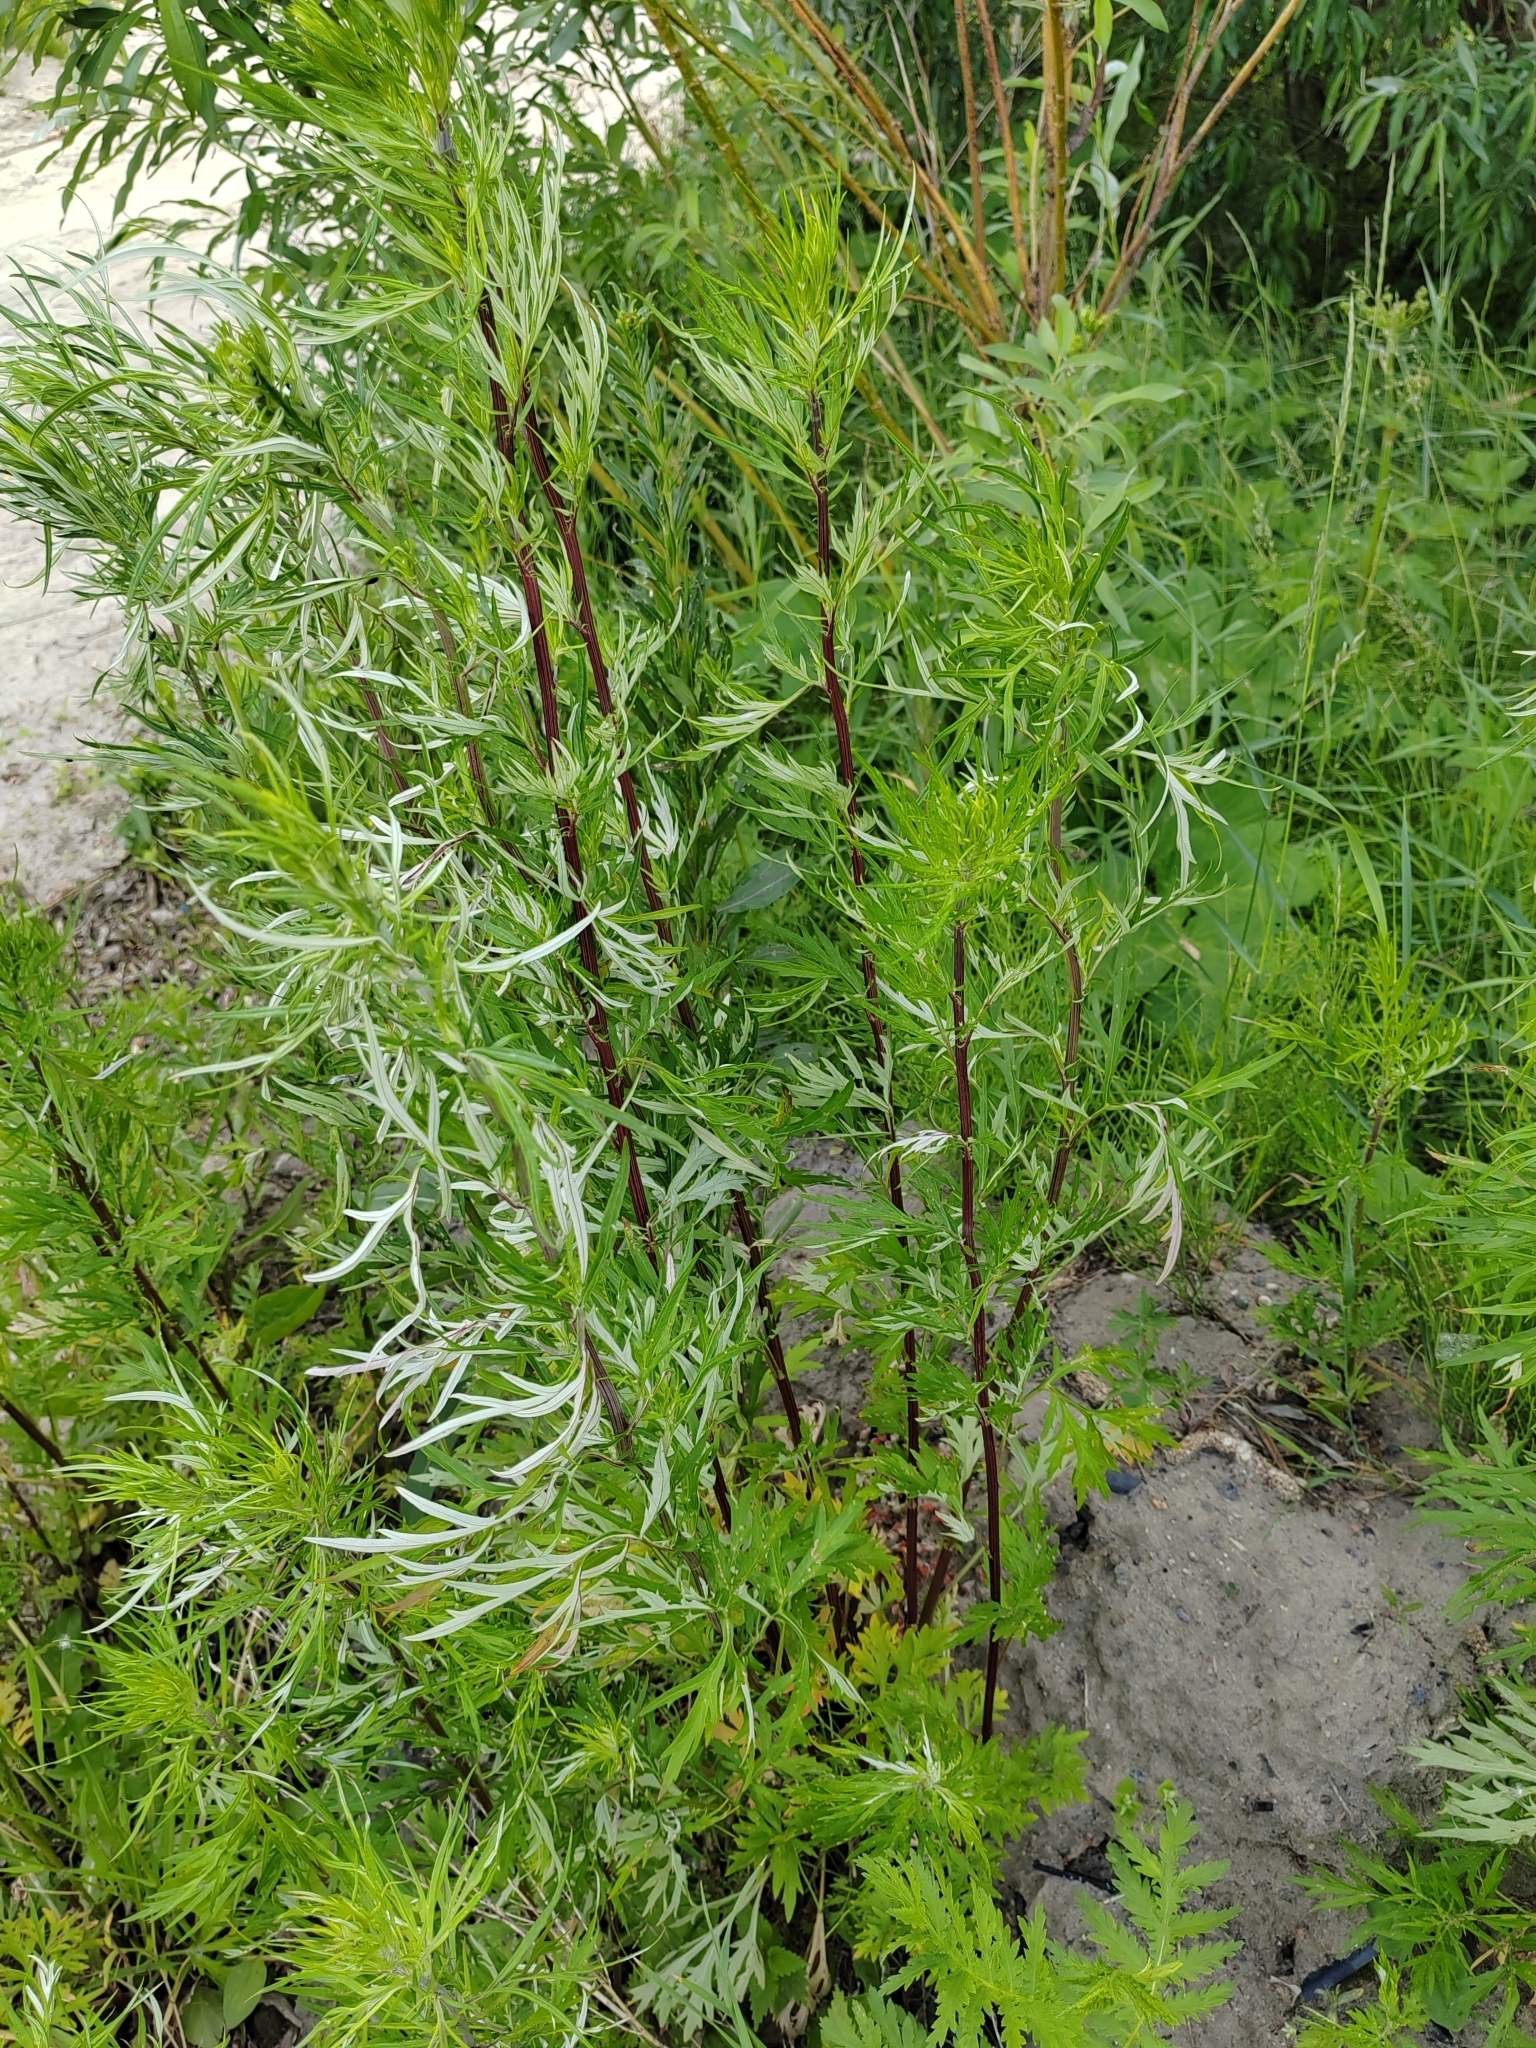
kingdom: Plantae
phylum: Tracheophyta
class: Magnoliopsida
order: Asterales
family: Asteraceae
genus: Artemisia
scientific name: Artemisia vulgaris
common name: Mugwort
